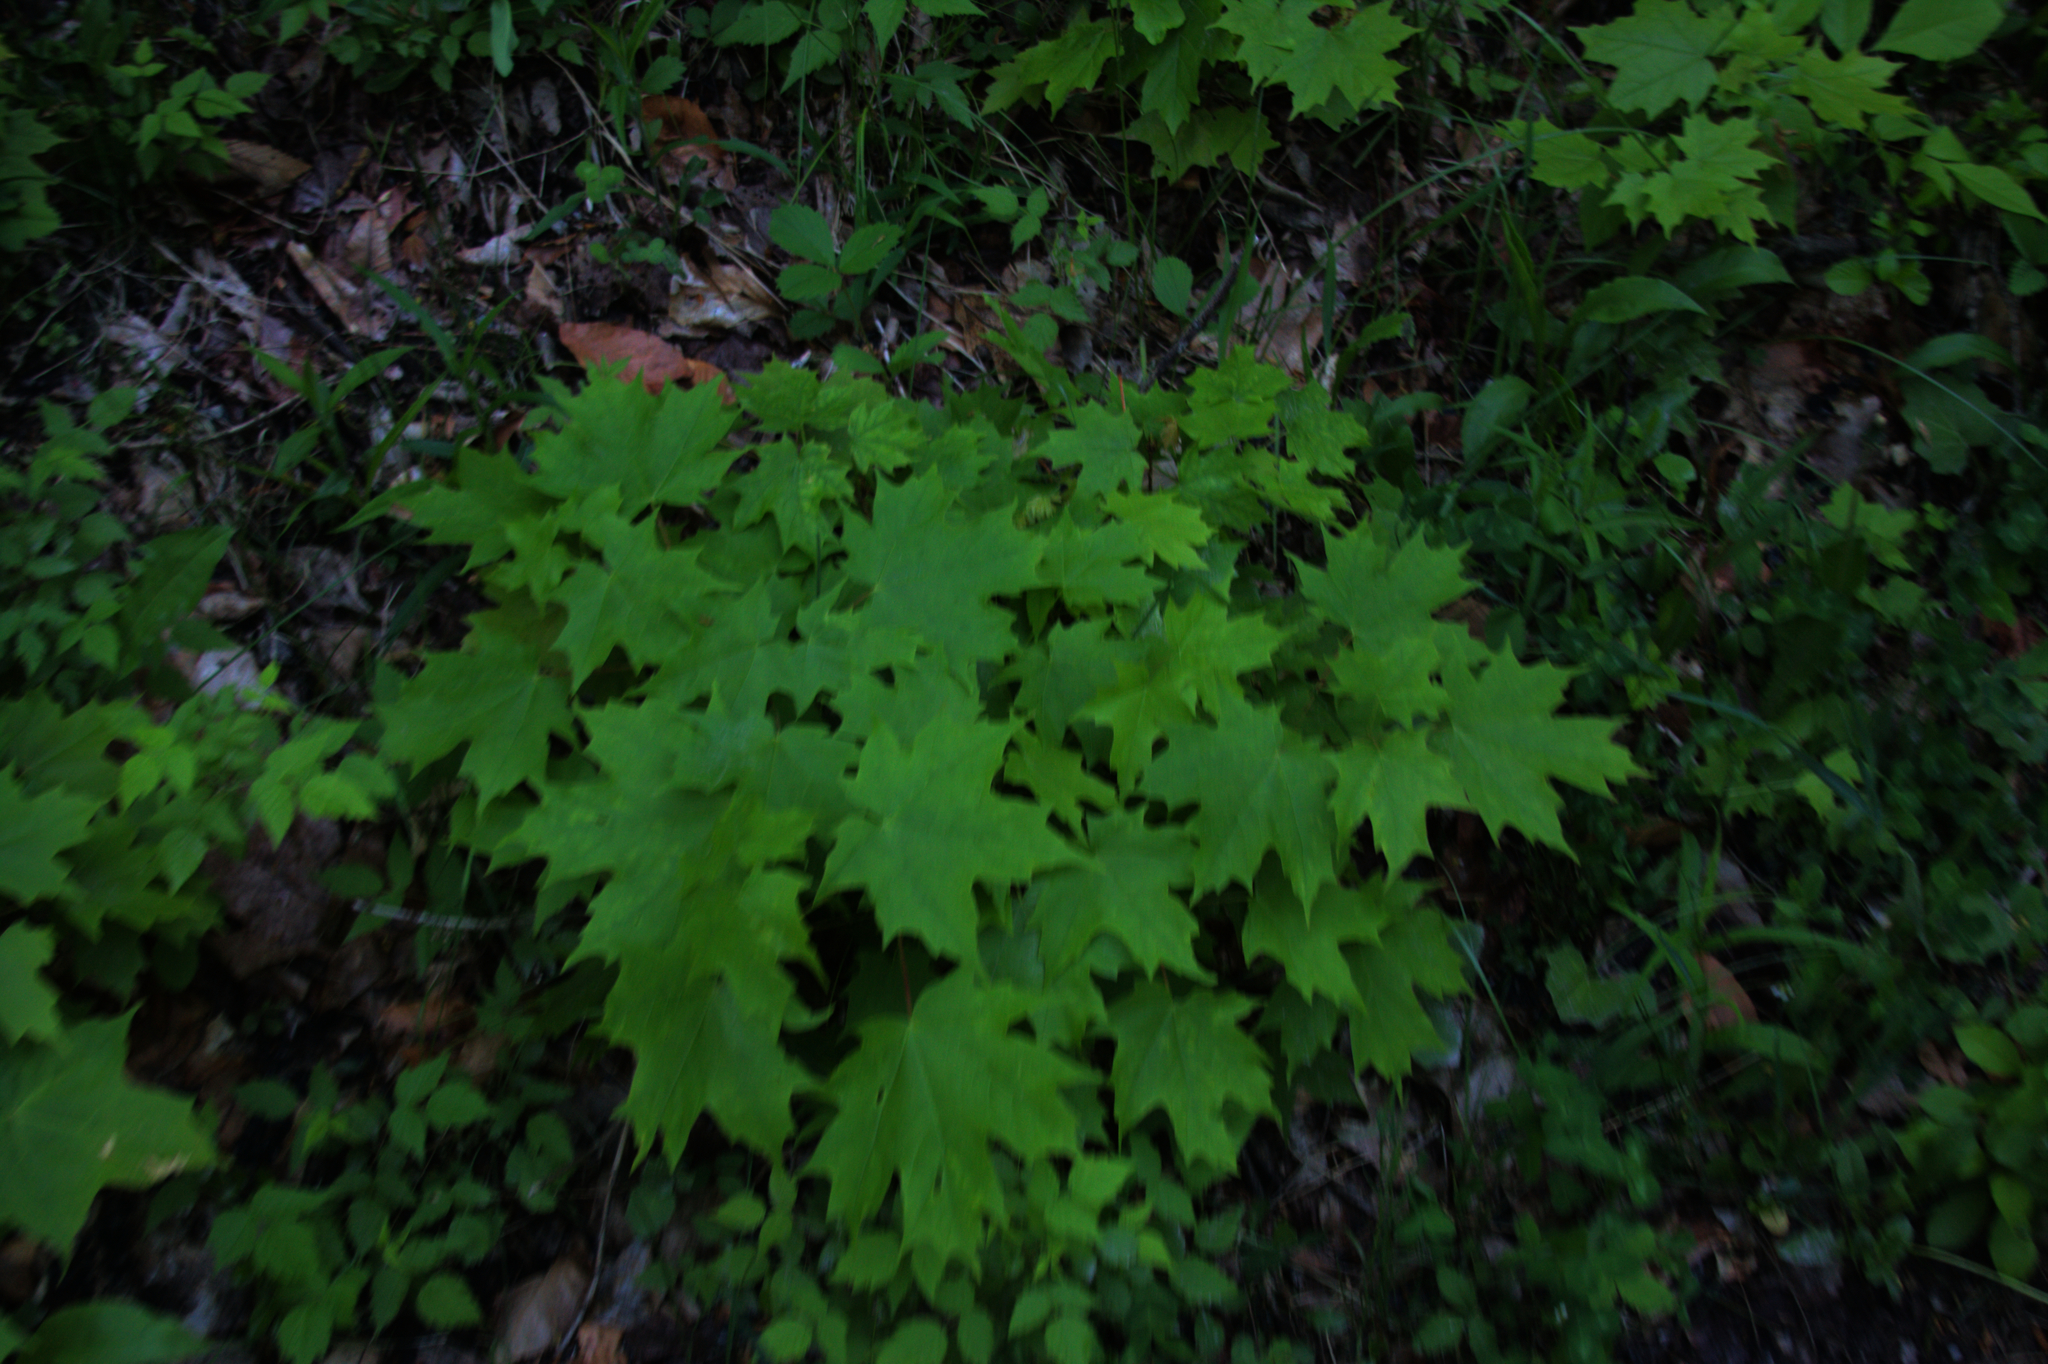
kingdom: Plantae
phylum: Tracheophyta
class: Magnoliopsida
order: Sapindales
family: Sapindaceae
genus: Acer
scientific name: Acer saccharum
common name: Sugar maple
